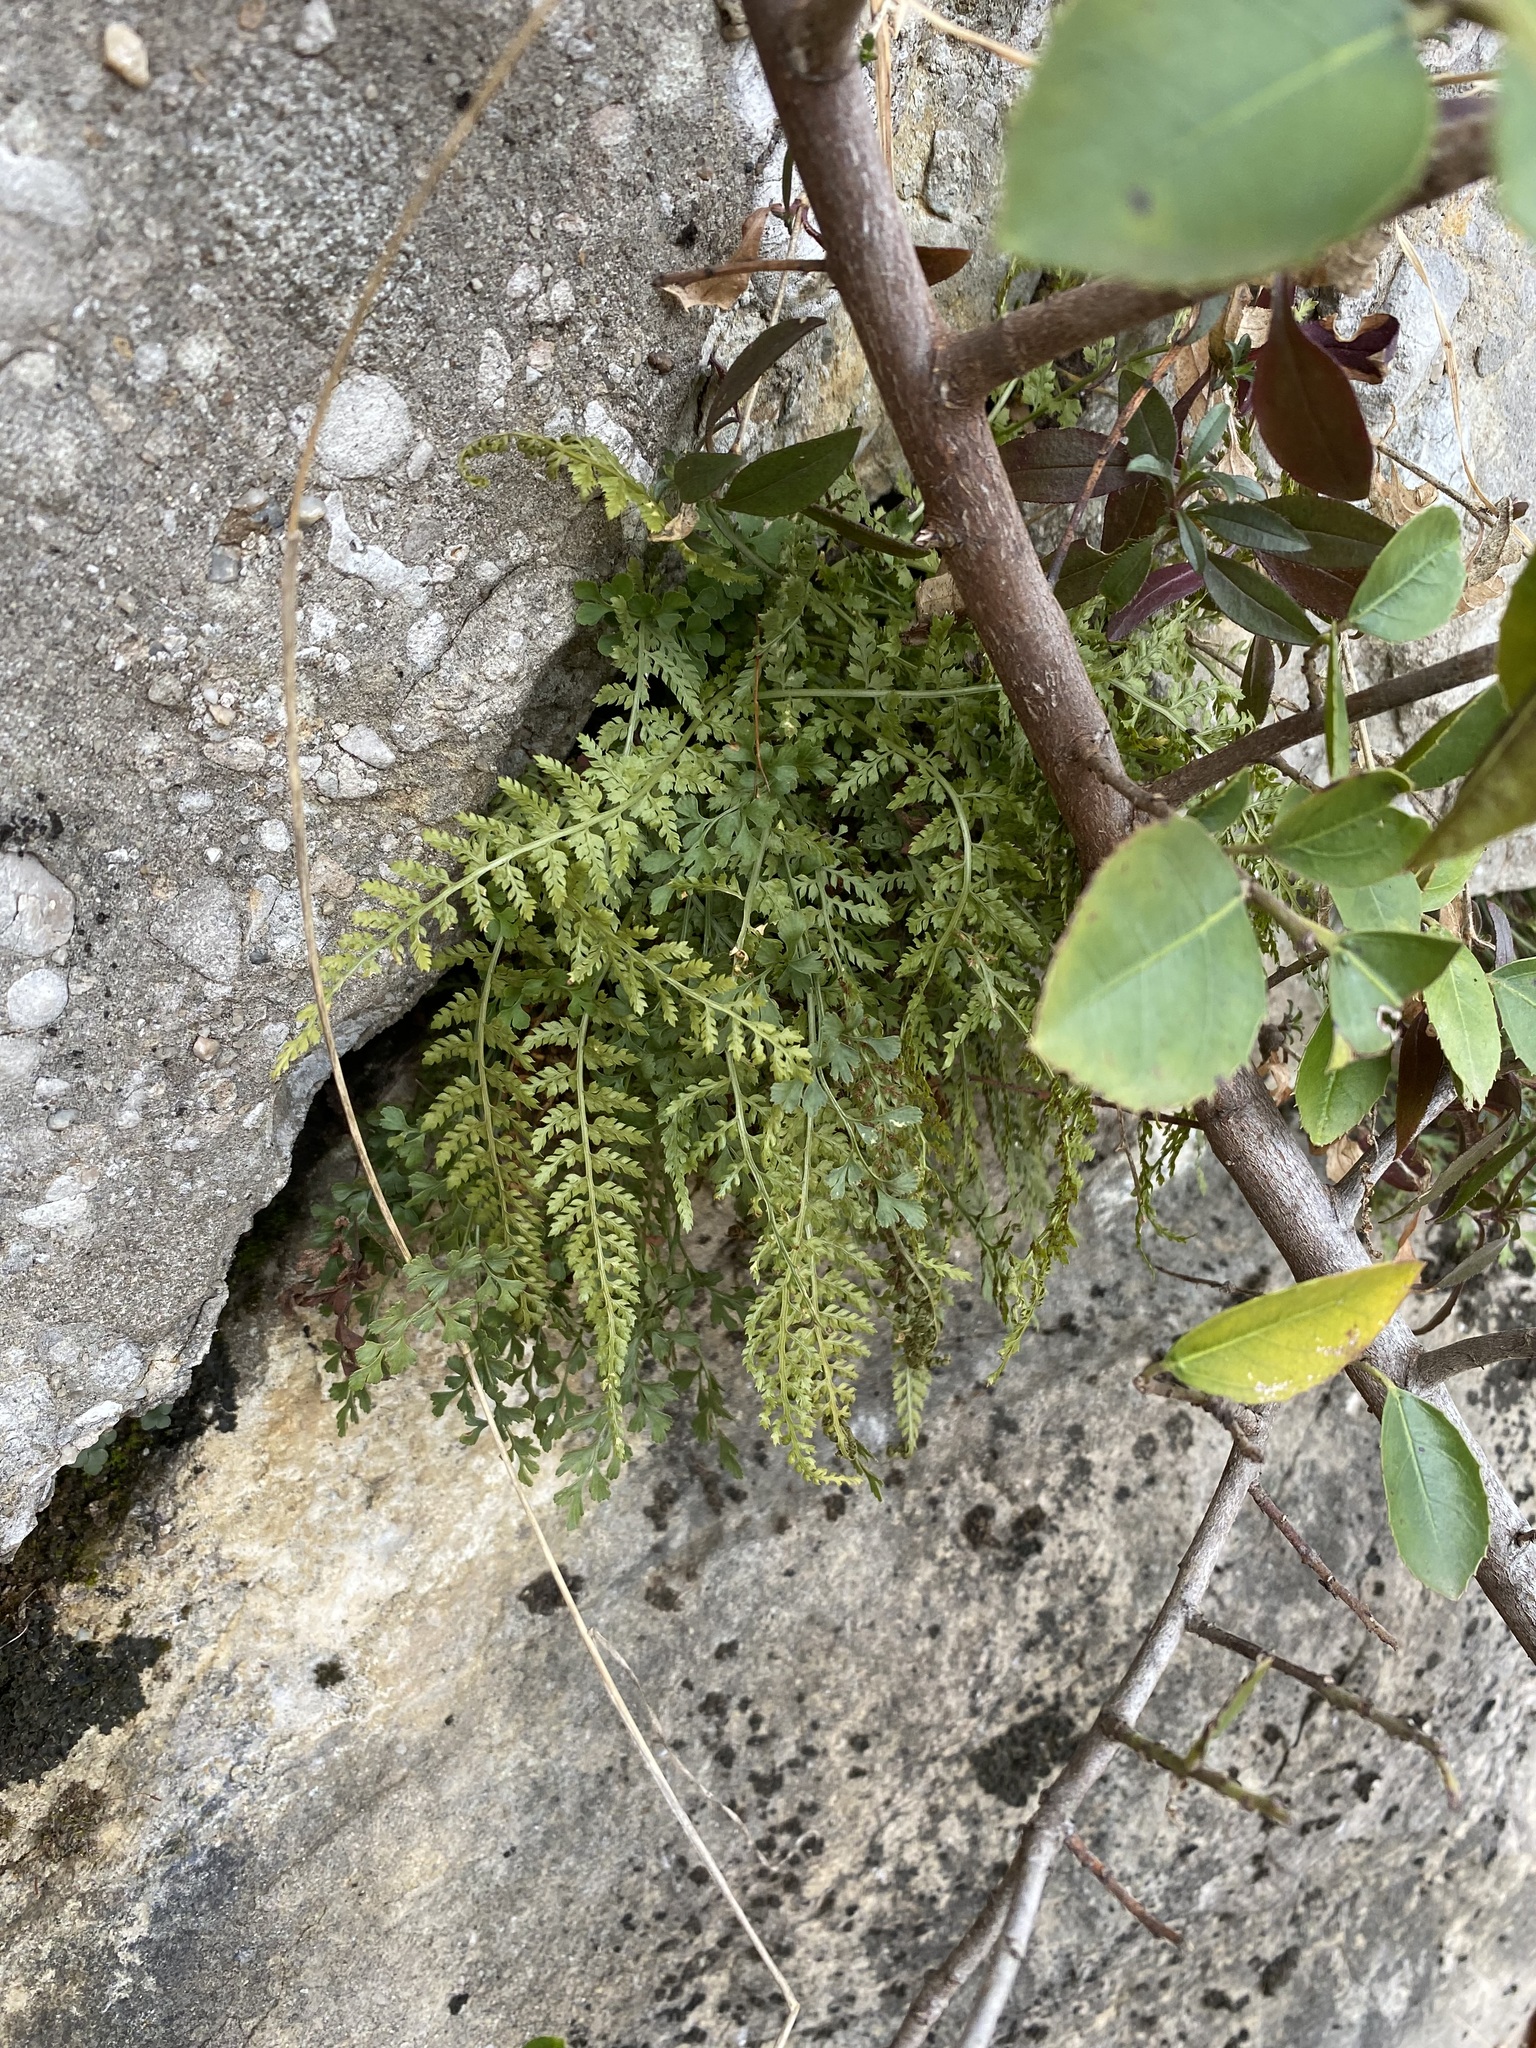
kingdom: Plantae
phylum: Tracheophyta
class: Polypodiopsida
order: Polypodiales
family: Aspleniaceae
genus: Asplenium
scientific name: Asplenium fontanum
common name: Fountain spleenwort
